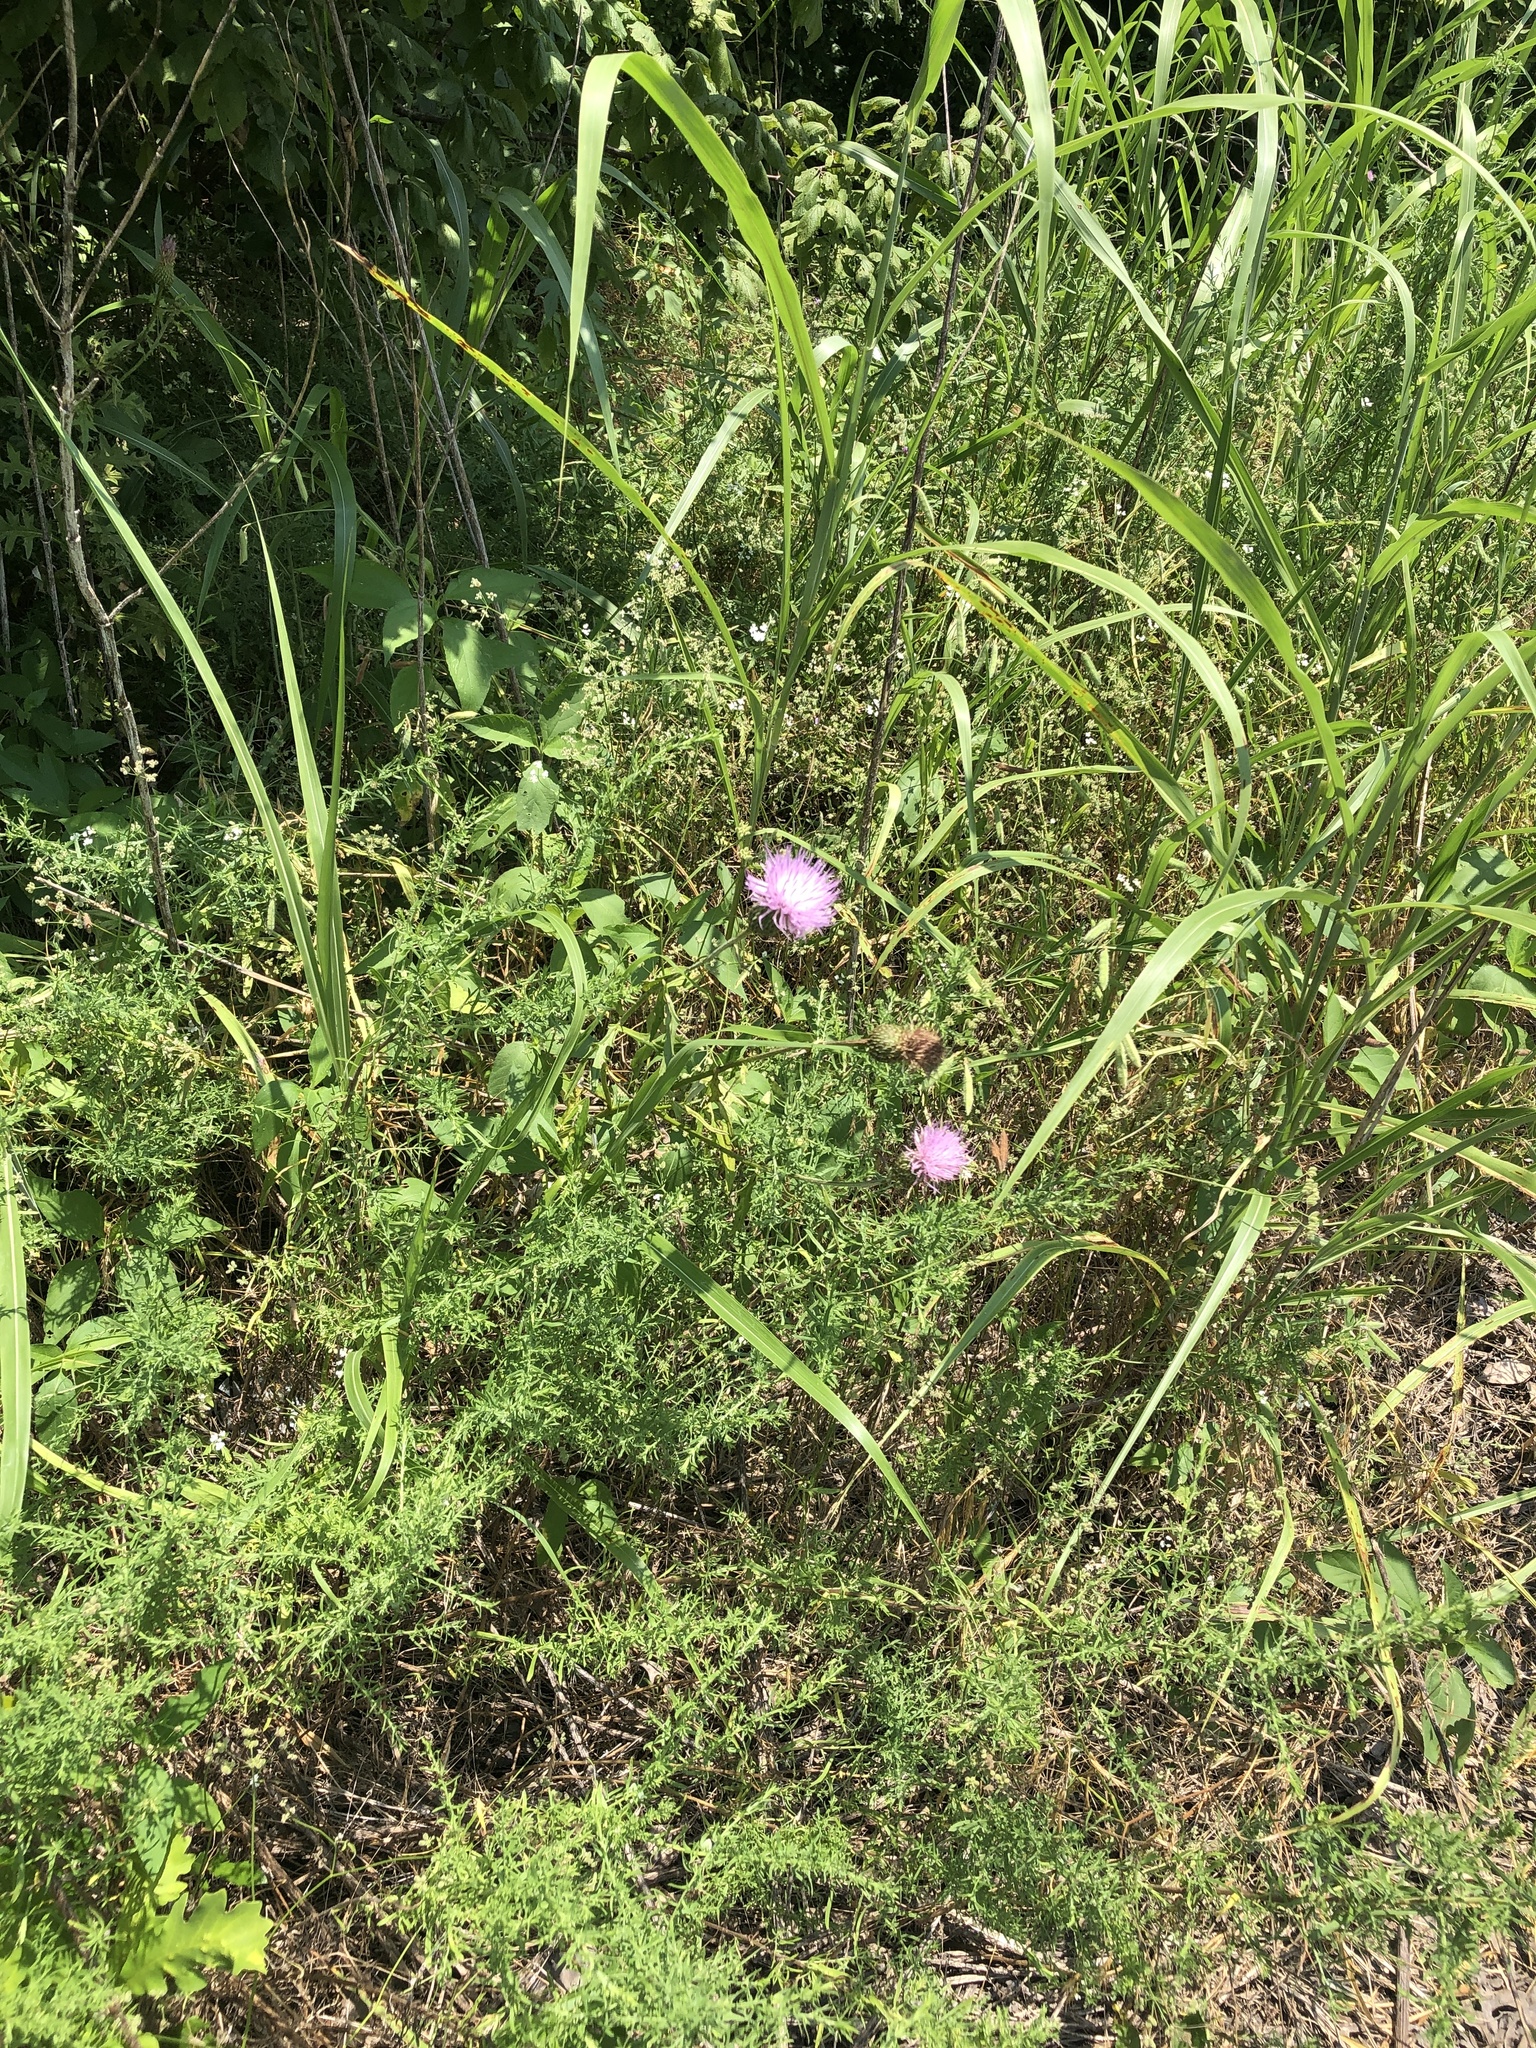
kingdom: Plantae
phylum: Tracheophyta
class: Magnoliopsida
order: Asterales
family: Asteraceae
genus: Cirsium
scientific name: Cirsium texanum
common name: Texas purple thistle
